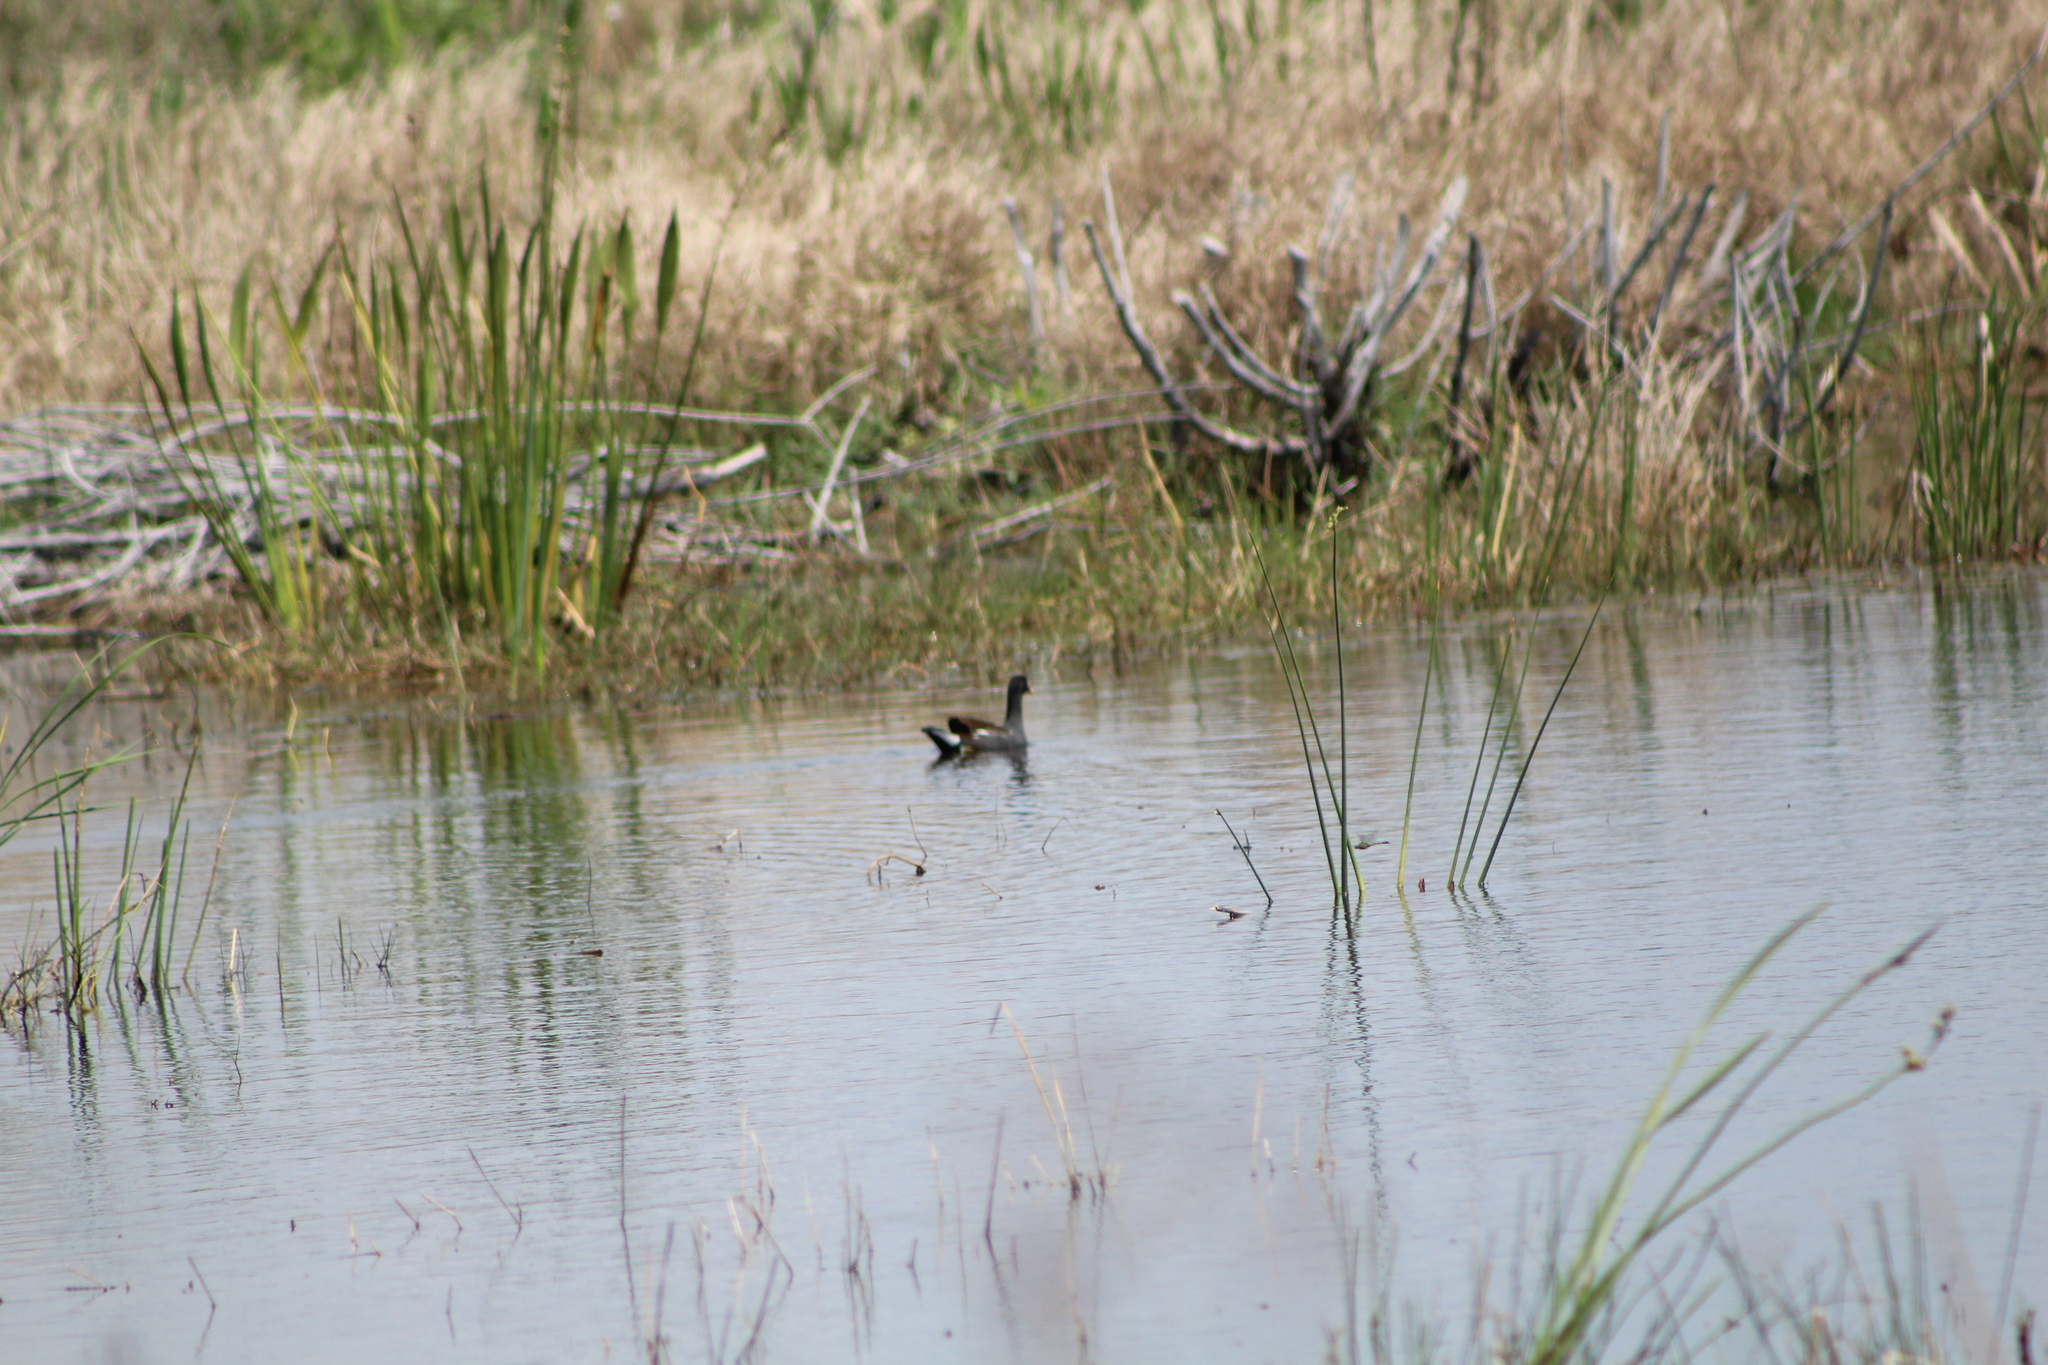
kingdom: Animalia
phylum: Chordata
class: Aves
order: Gruiformes
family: Rallidae
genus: Gallinula
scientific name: Gallinula chloropus
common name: Common moorhen
